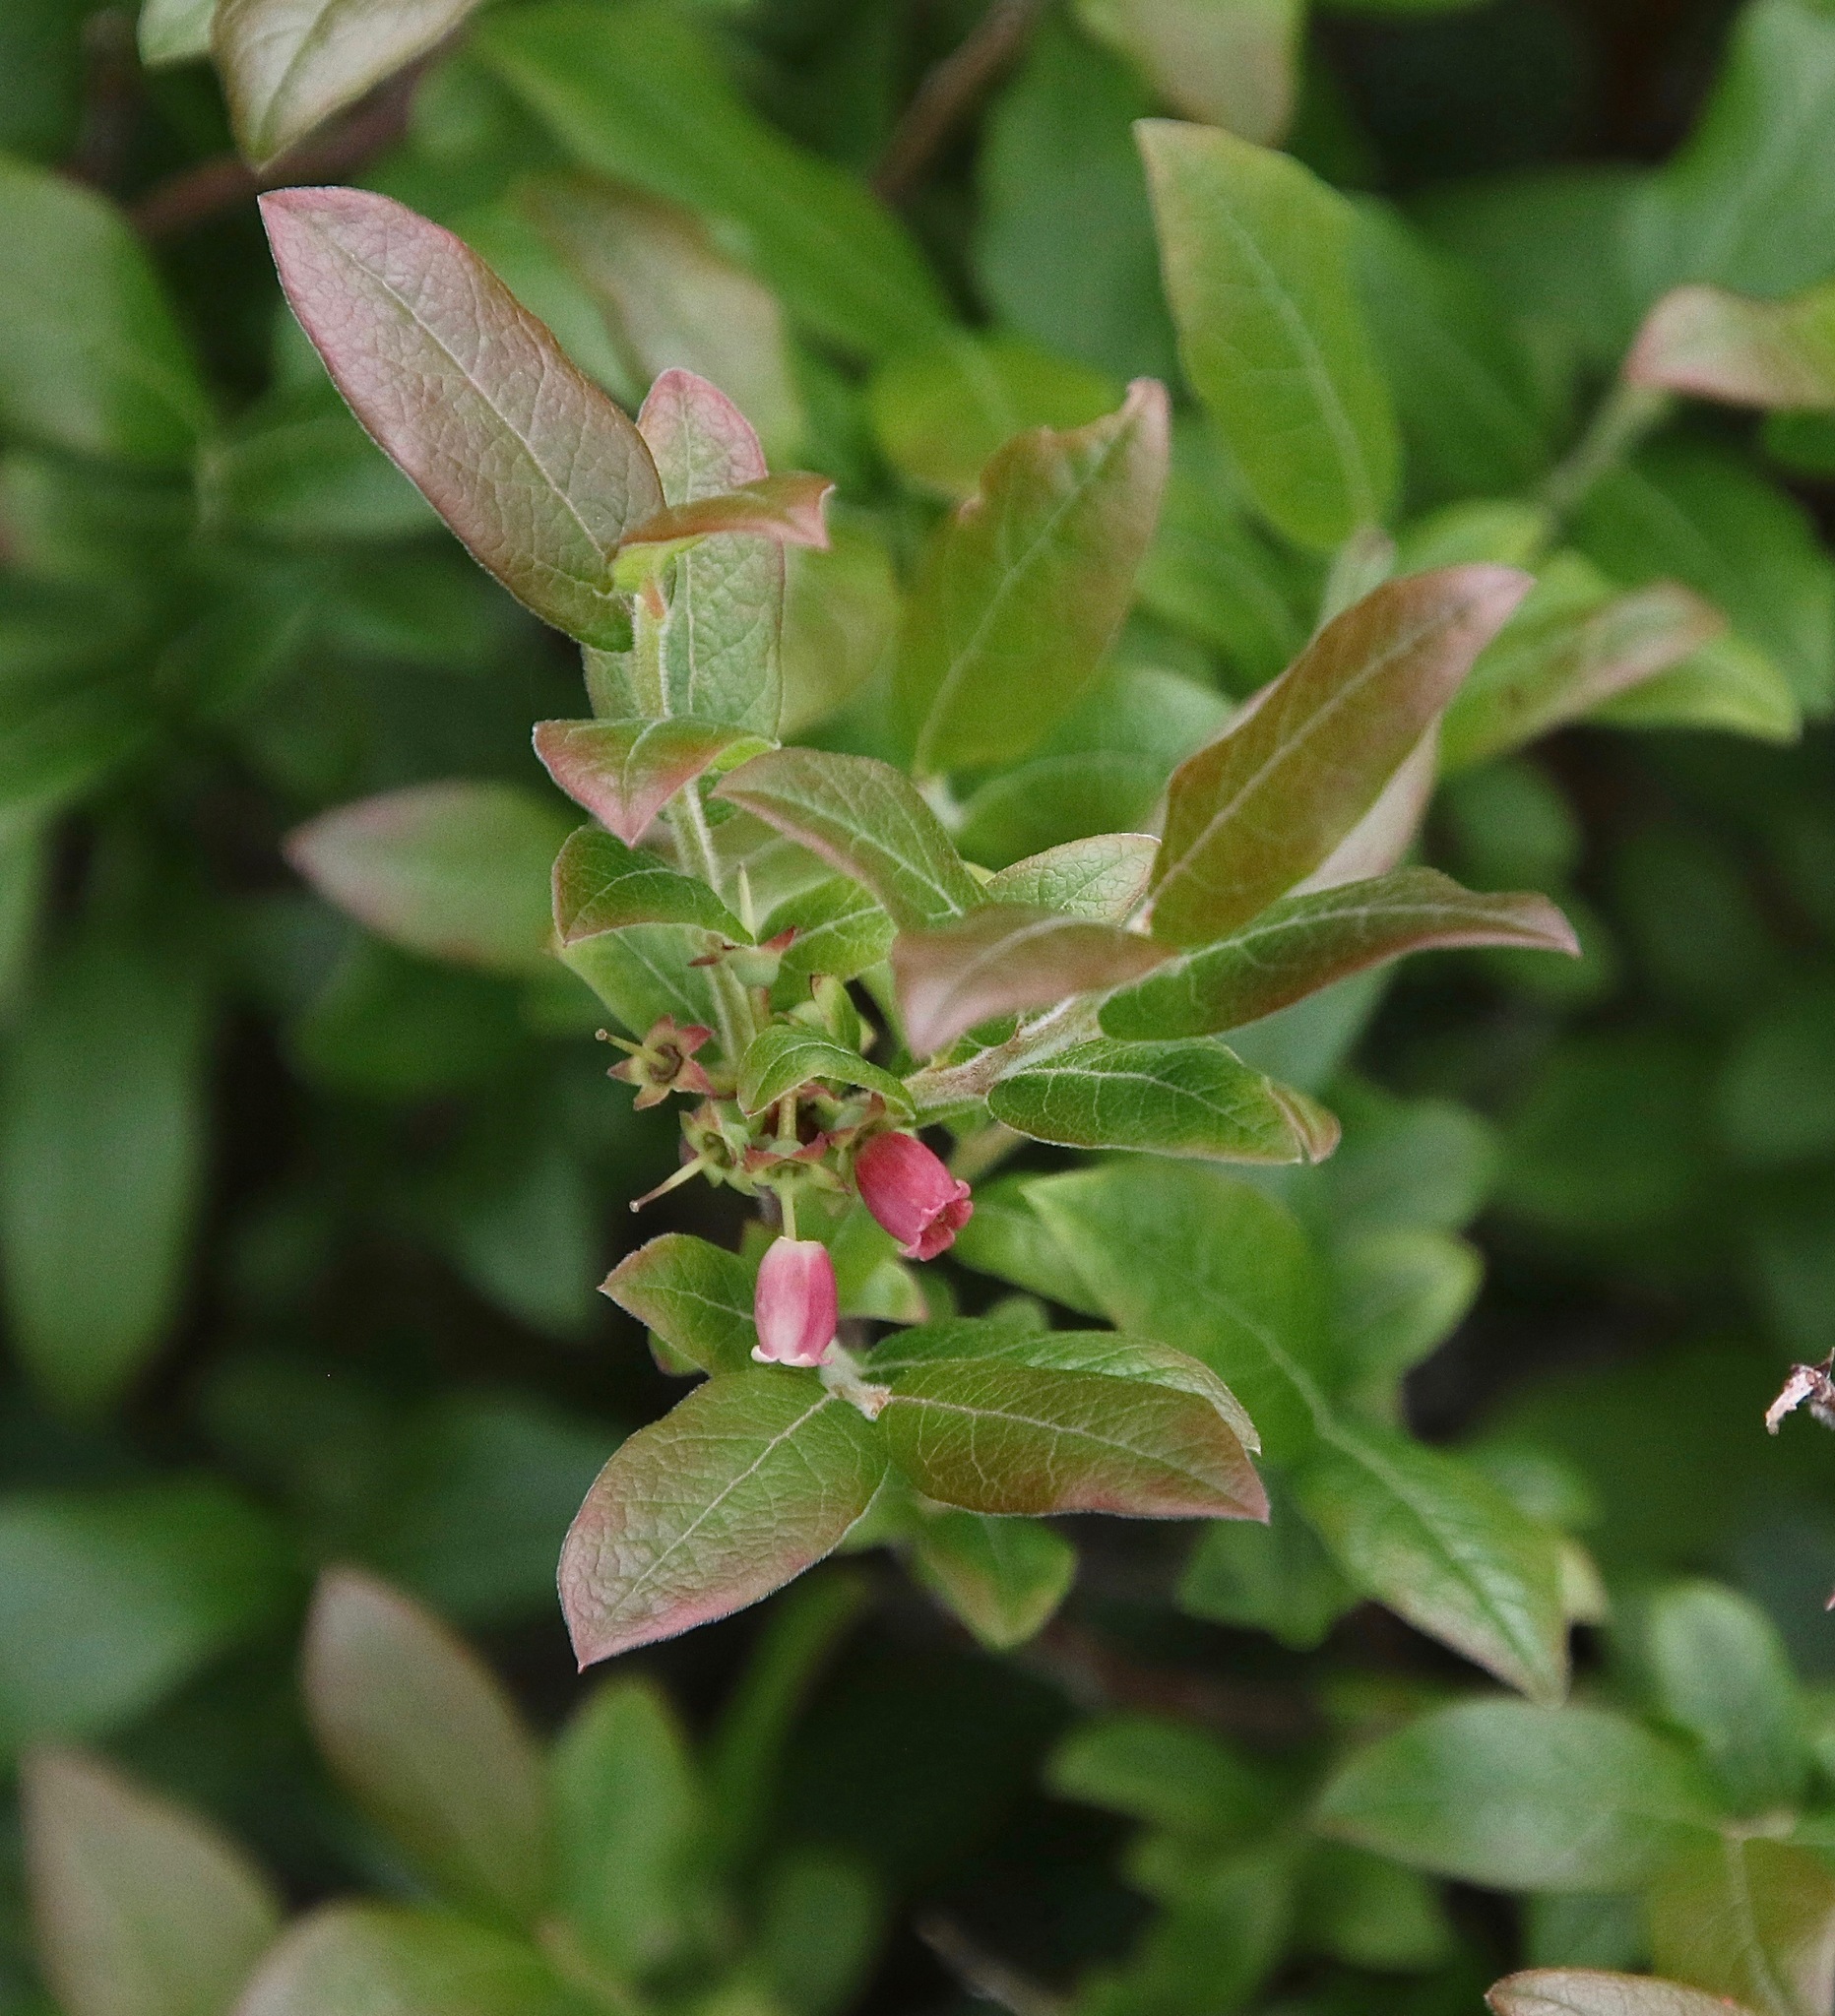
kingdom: Plantae
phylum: Tracheophyta
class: Magnoliopsida
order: Ericales
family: Ericaceae
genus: Vaccinium
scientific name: Vaccinium myrtilloides
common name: Canada blueberry
